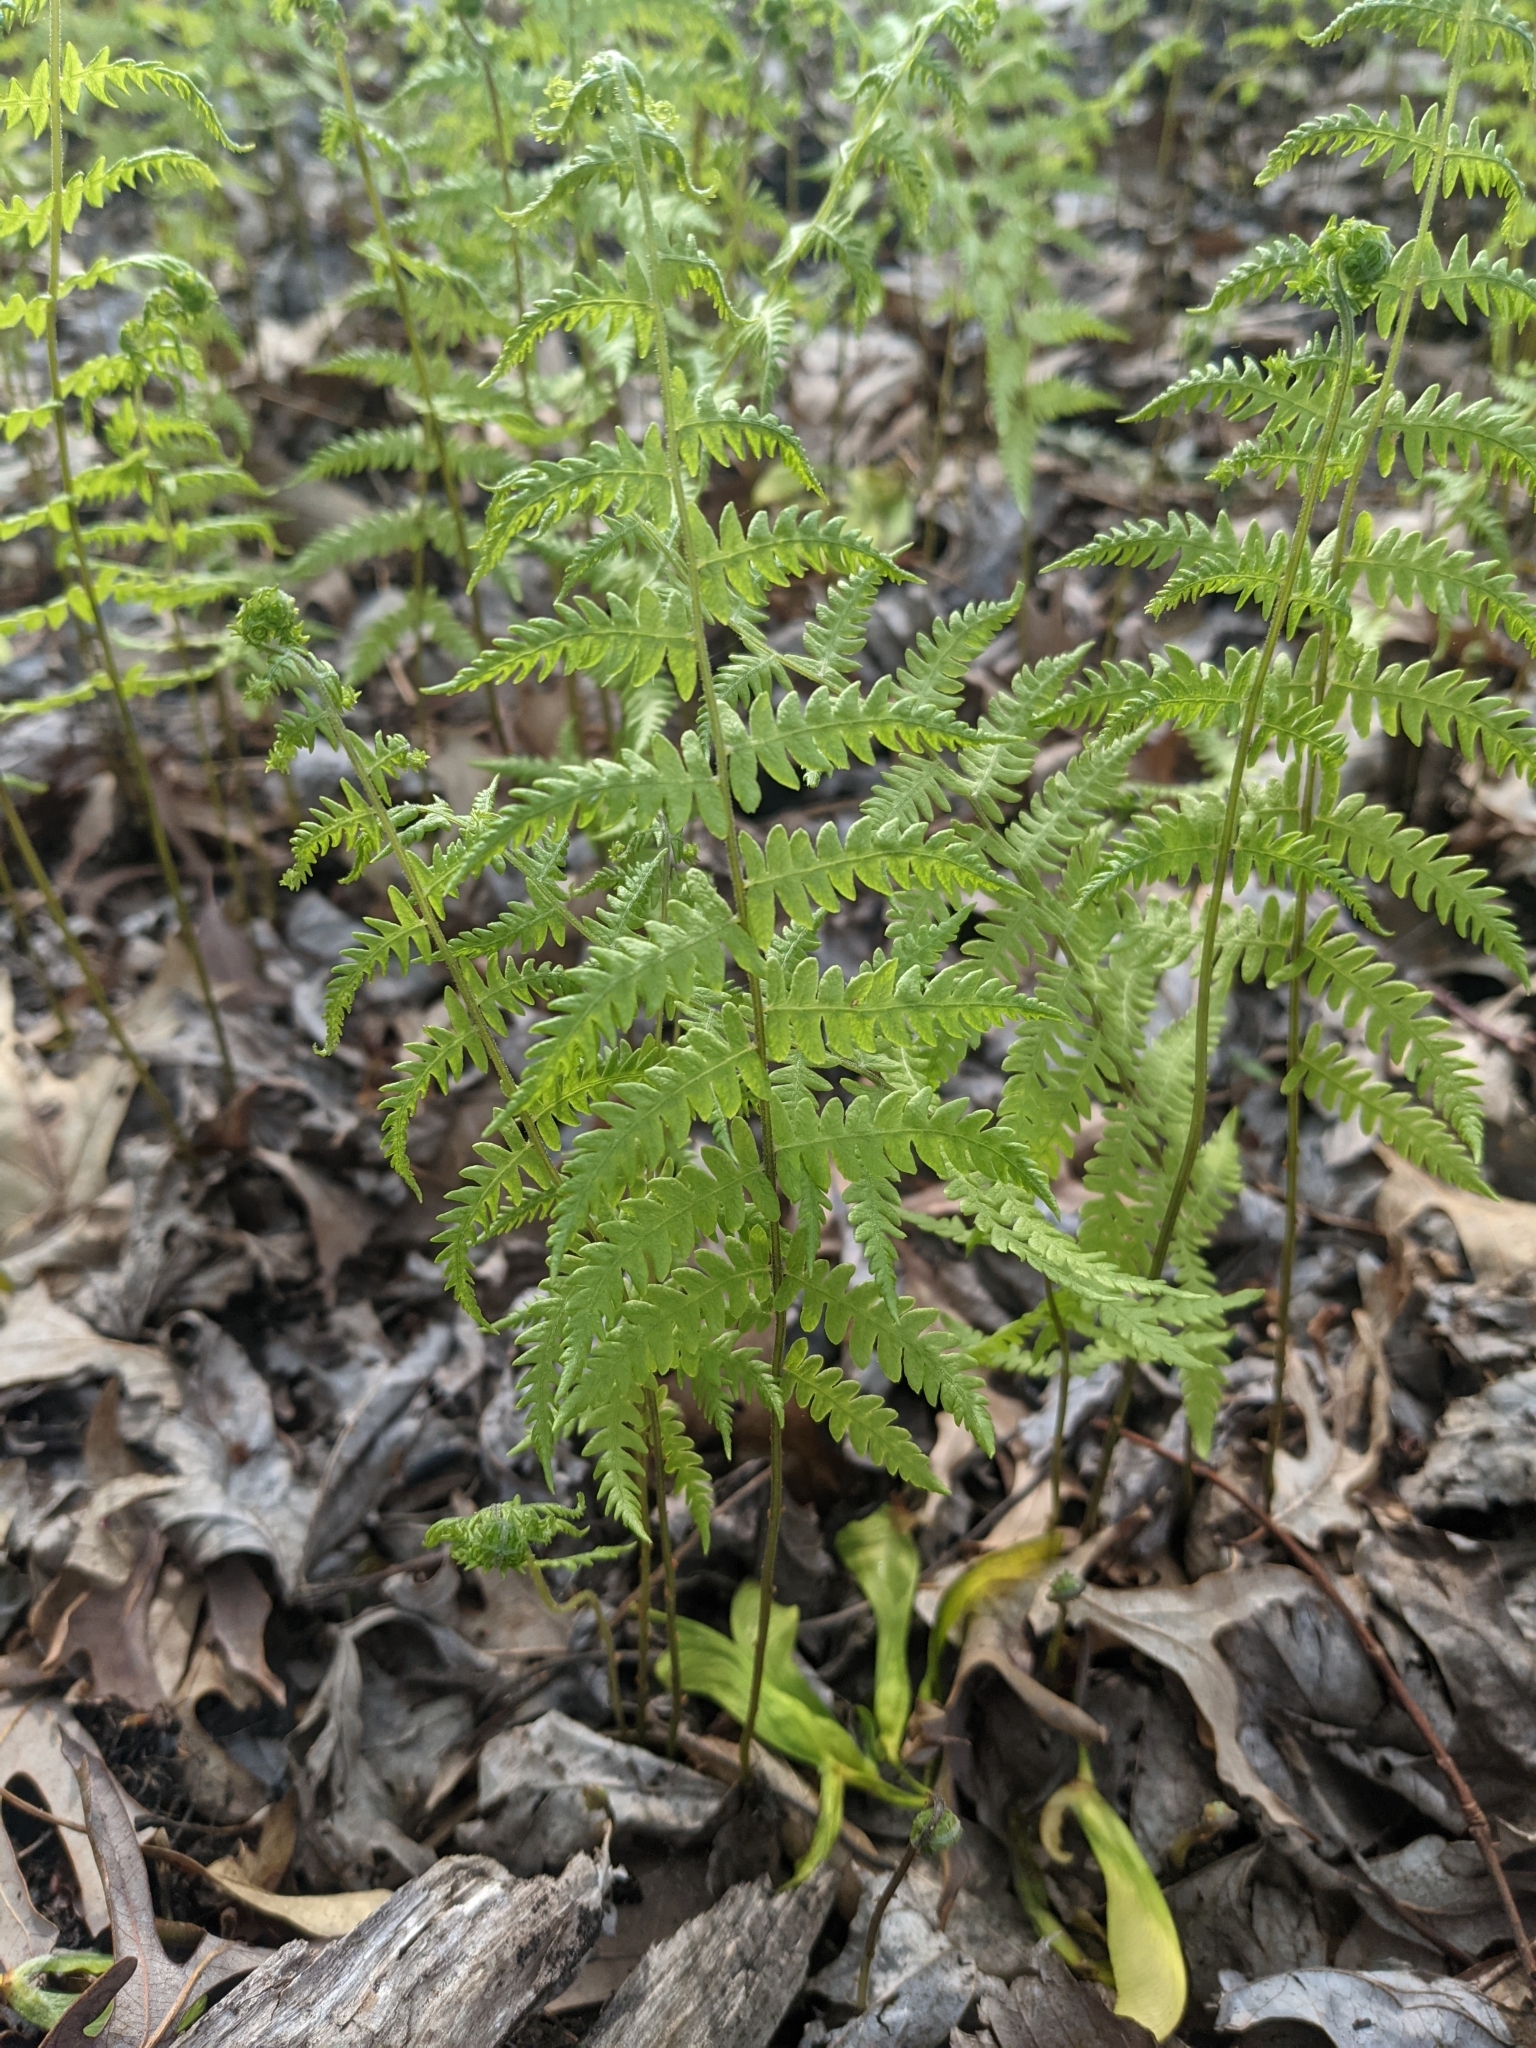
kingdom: Plantae
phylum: Tracheophyta
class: Polypodiopsida
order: Polypodiales
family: Thelypteridaceae
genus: Thelypteris
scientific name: Thelypteris palustris
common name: Marsh fern
